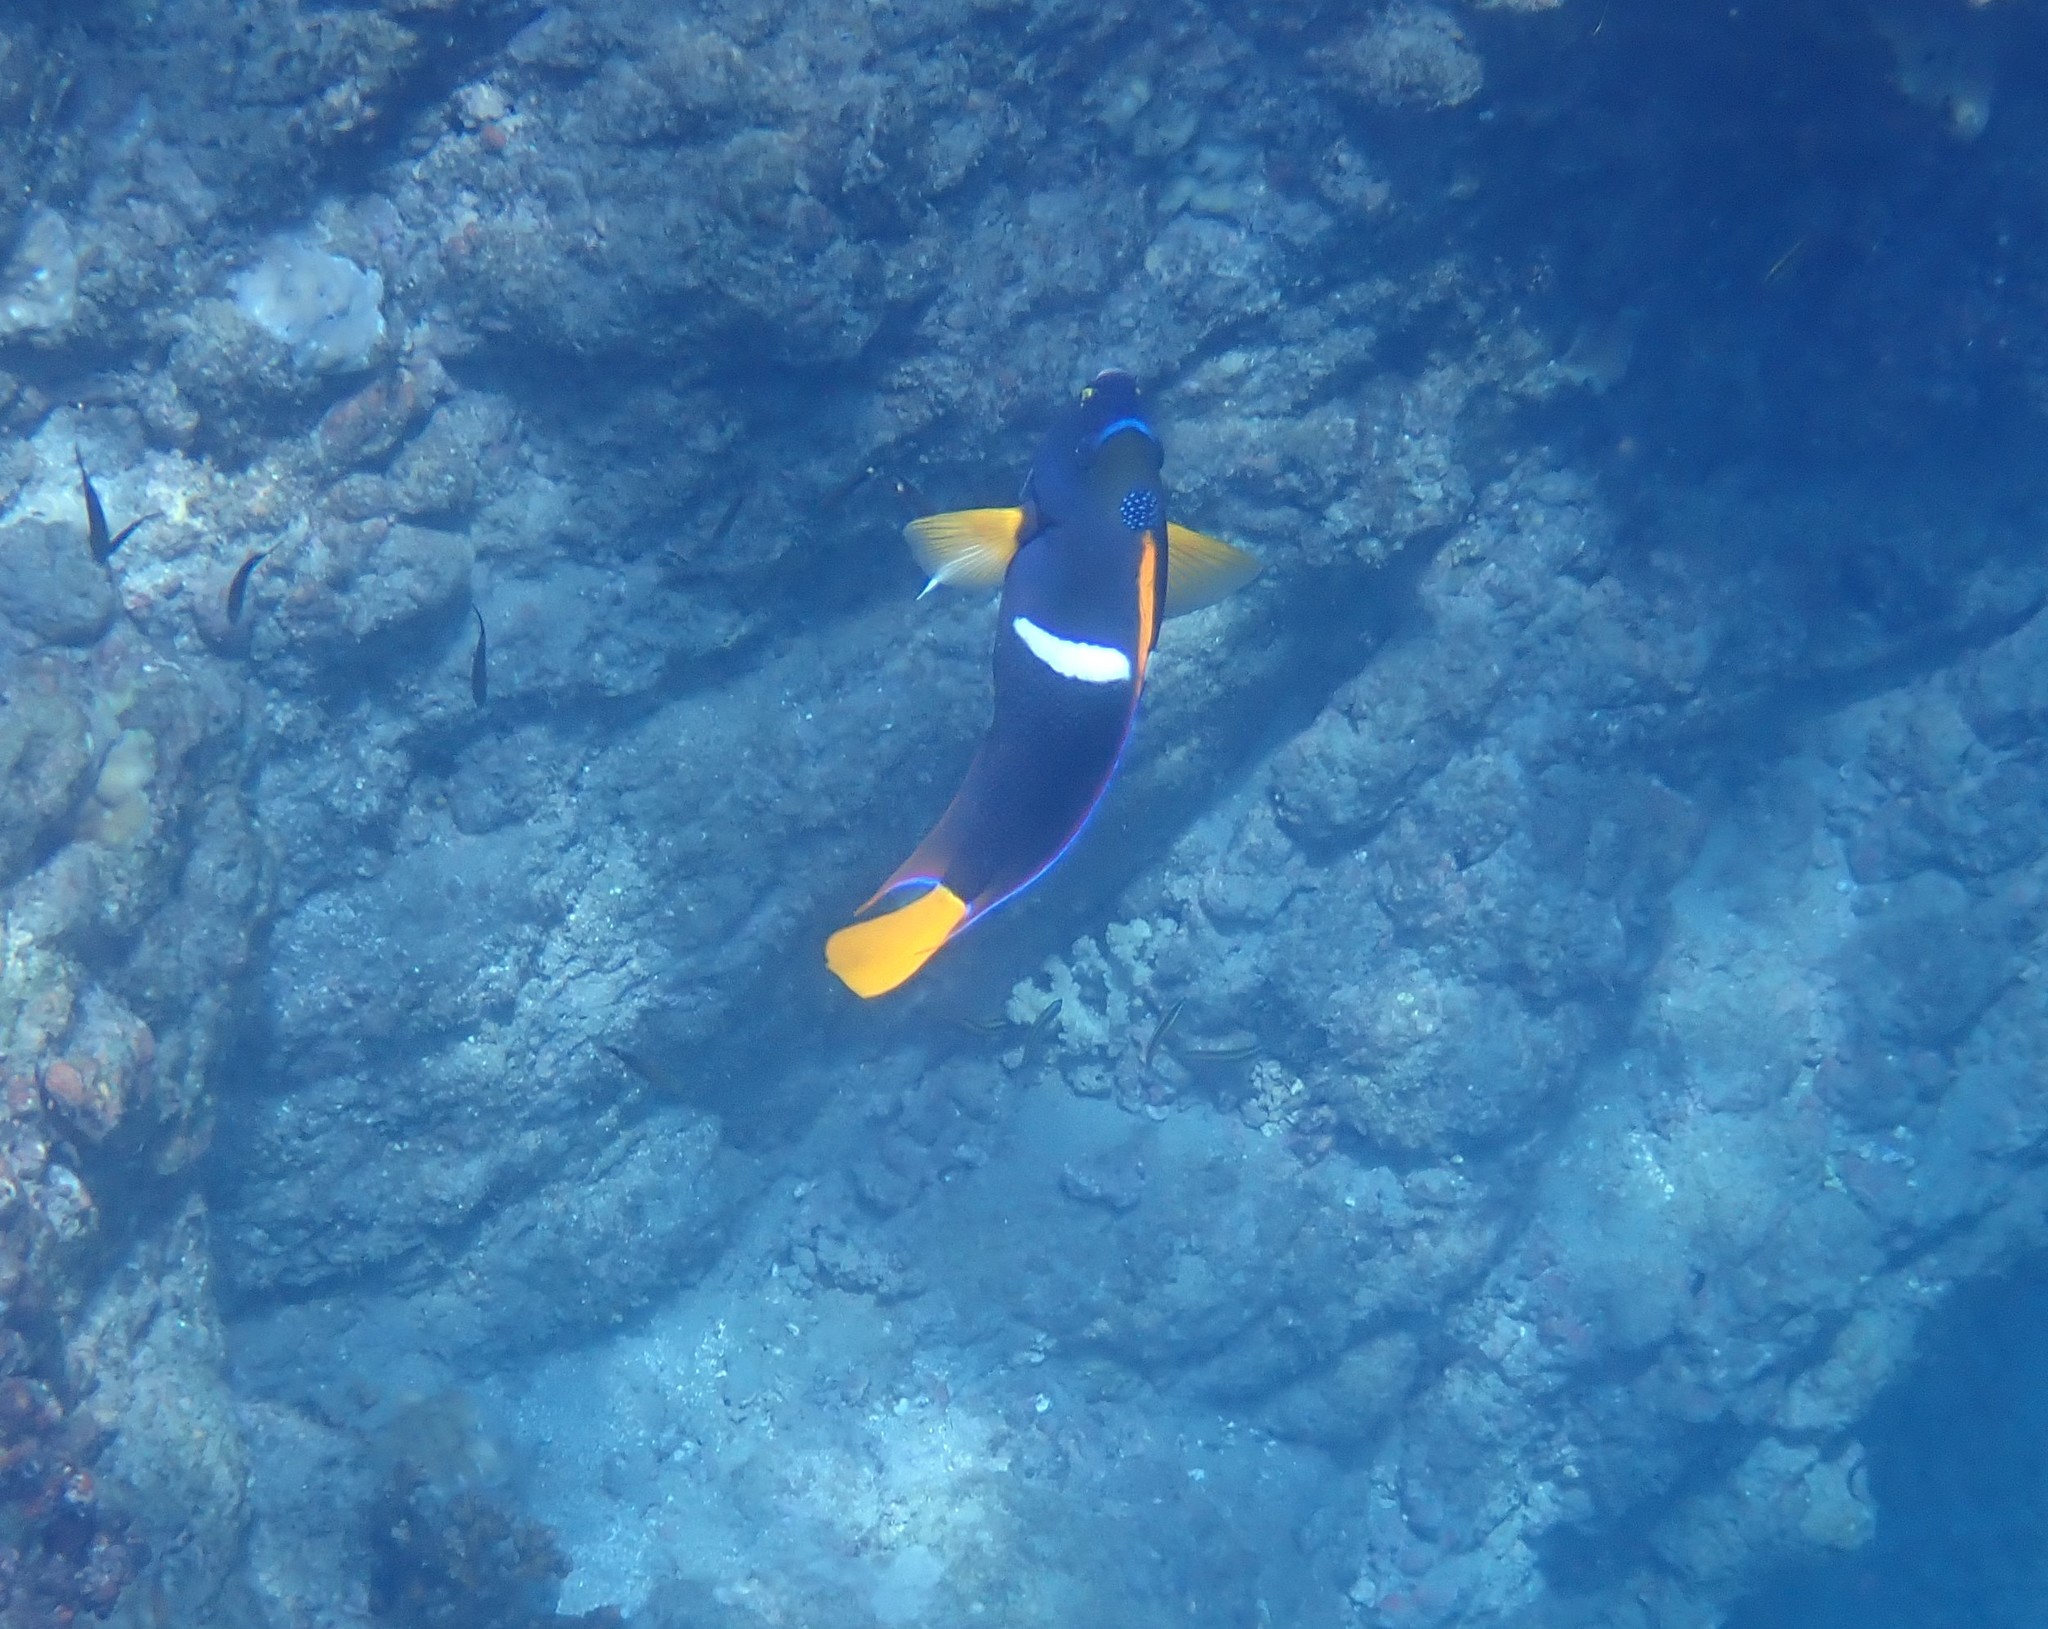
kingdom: Animalia
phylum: Chordata
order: Perciformes
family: Pomacanthidae
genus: Holacanthus
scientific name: Holacanthus passer
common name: King angelfish
